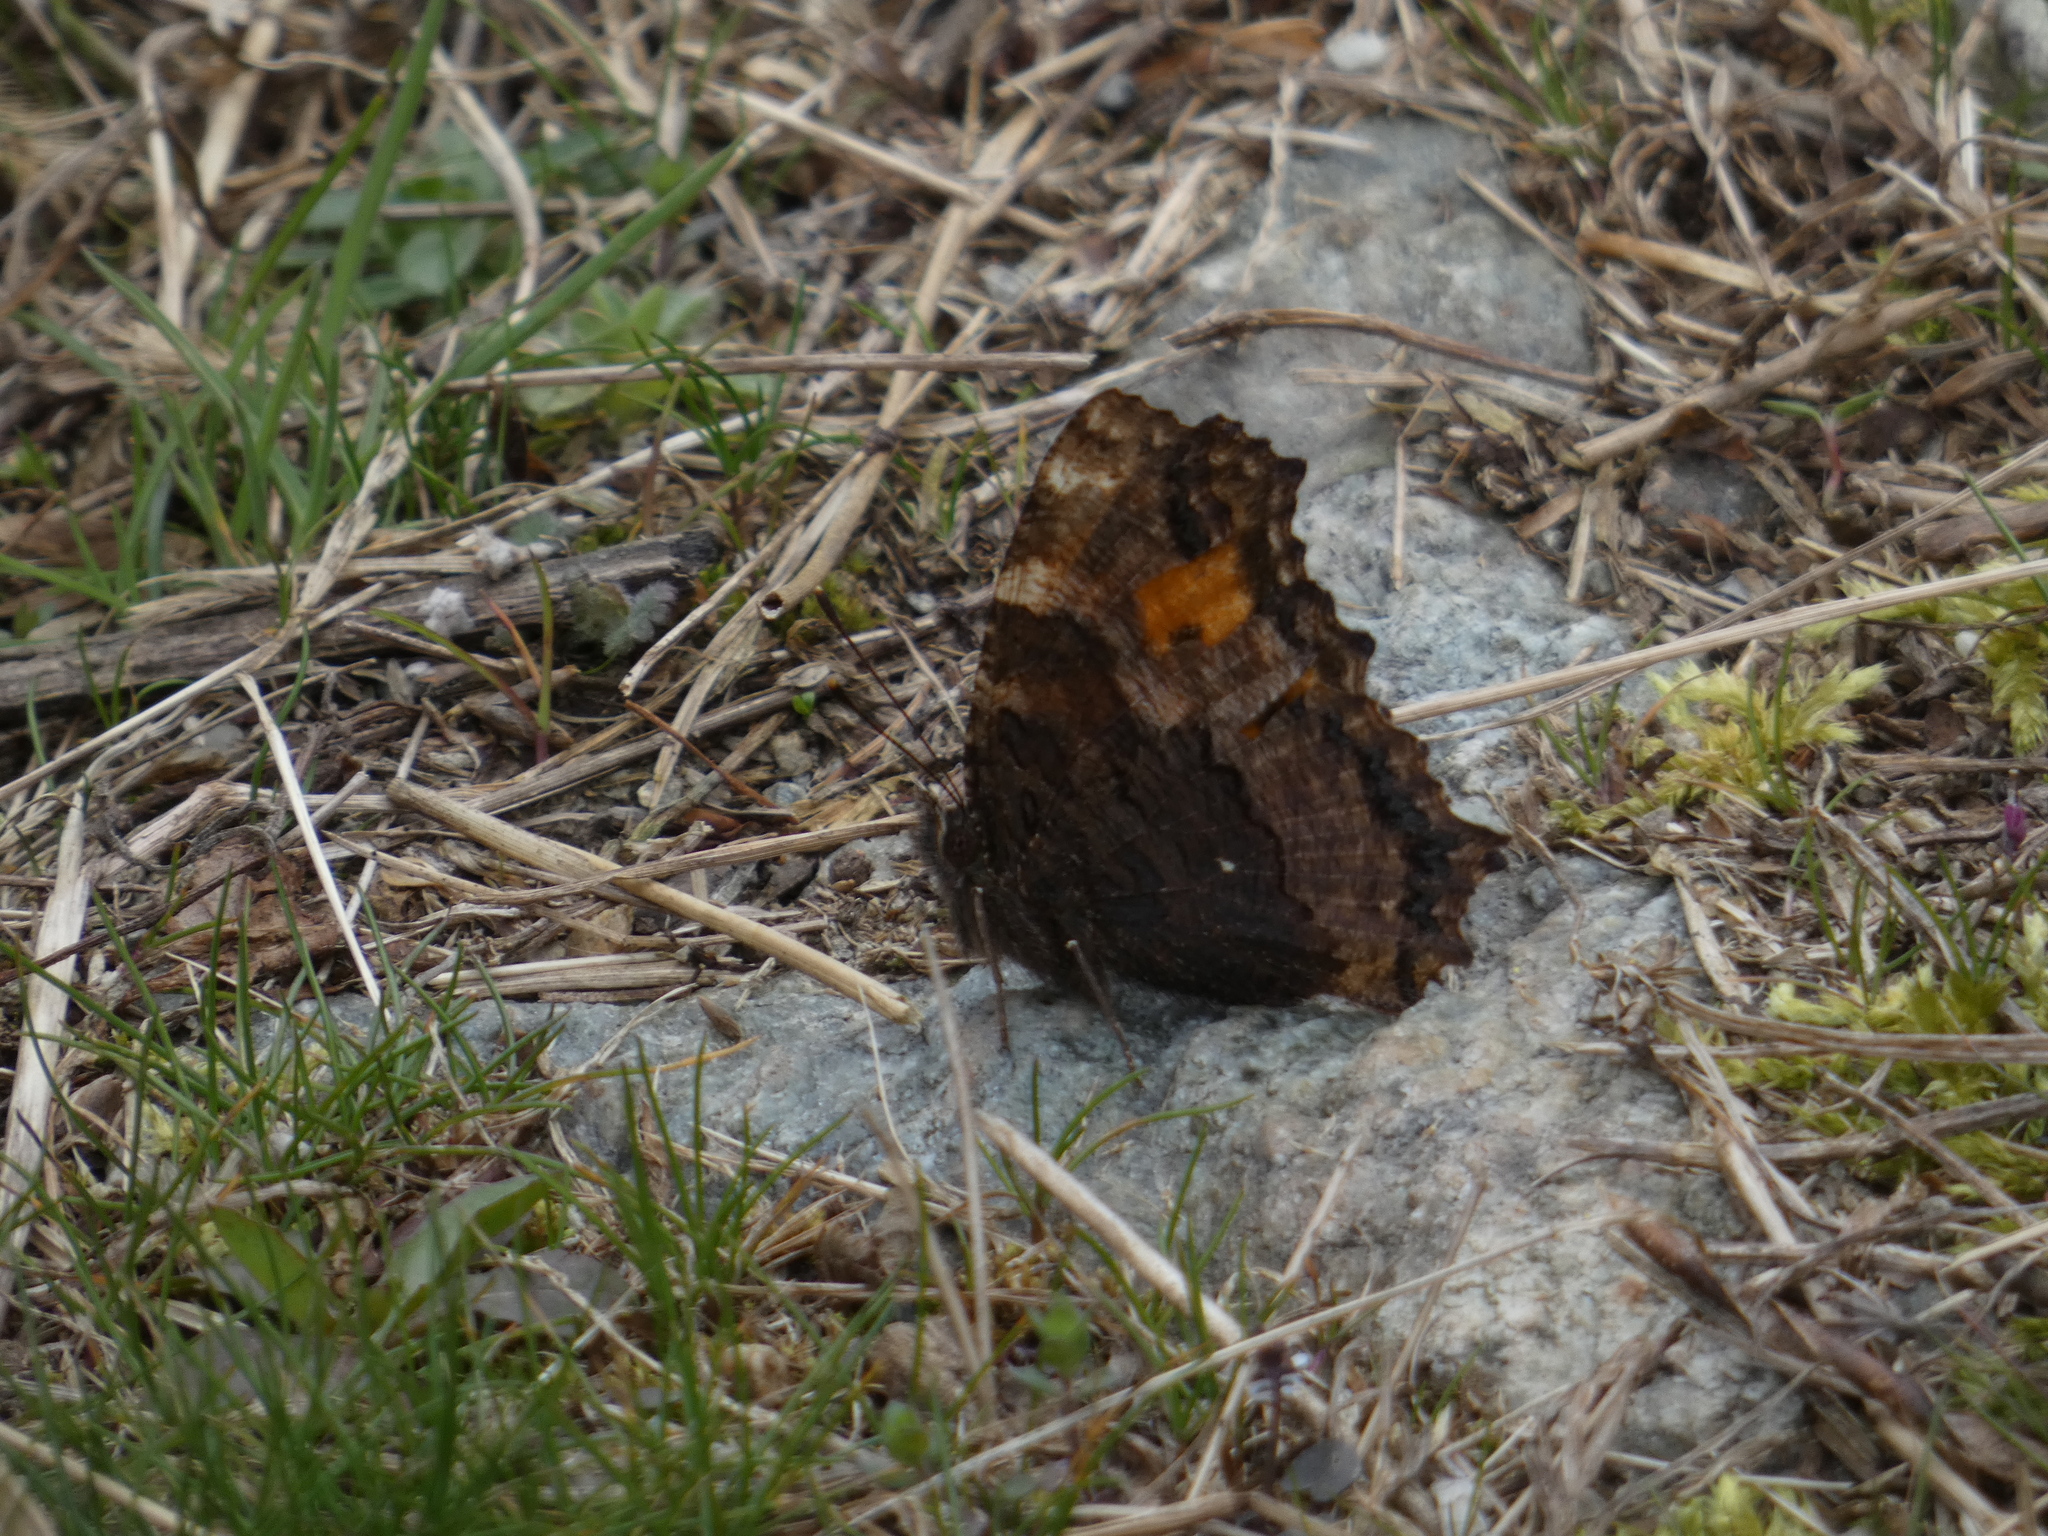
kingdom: Animalia
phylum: Arthropoda
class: Insecta
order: Lepidoptera
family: Nymphalidae
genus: Nymphalis
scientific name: Nymphalis polychloros
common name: Large tortoiseshell
